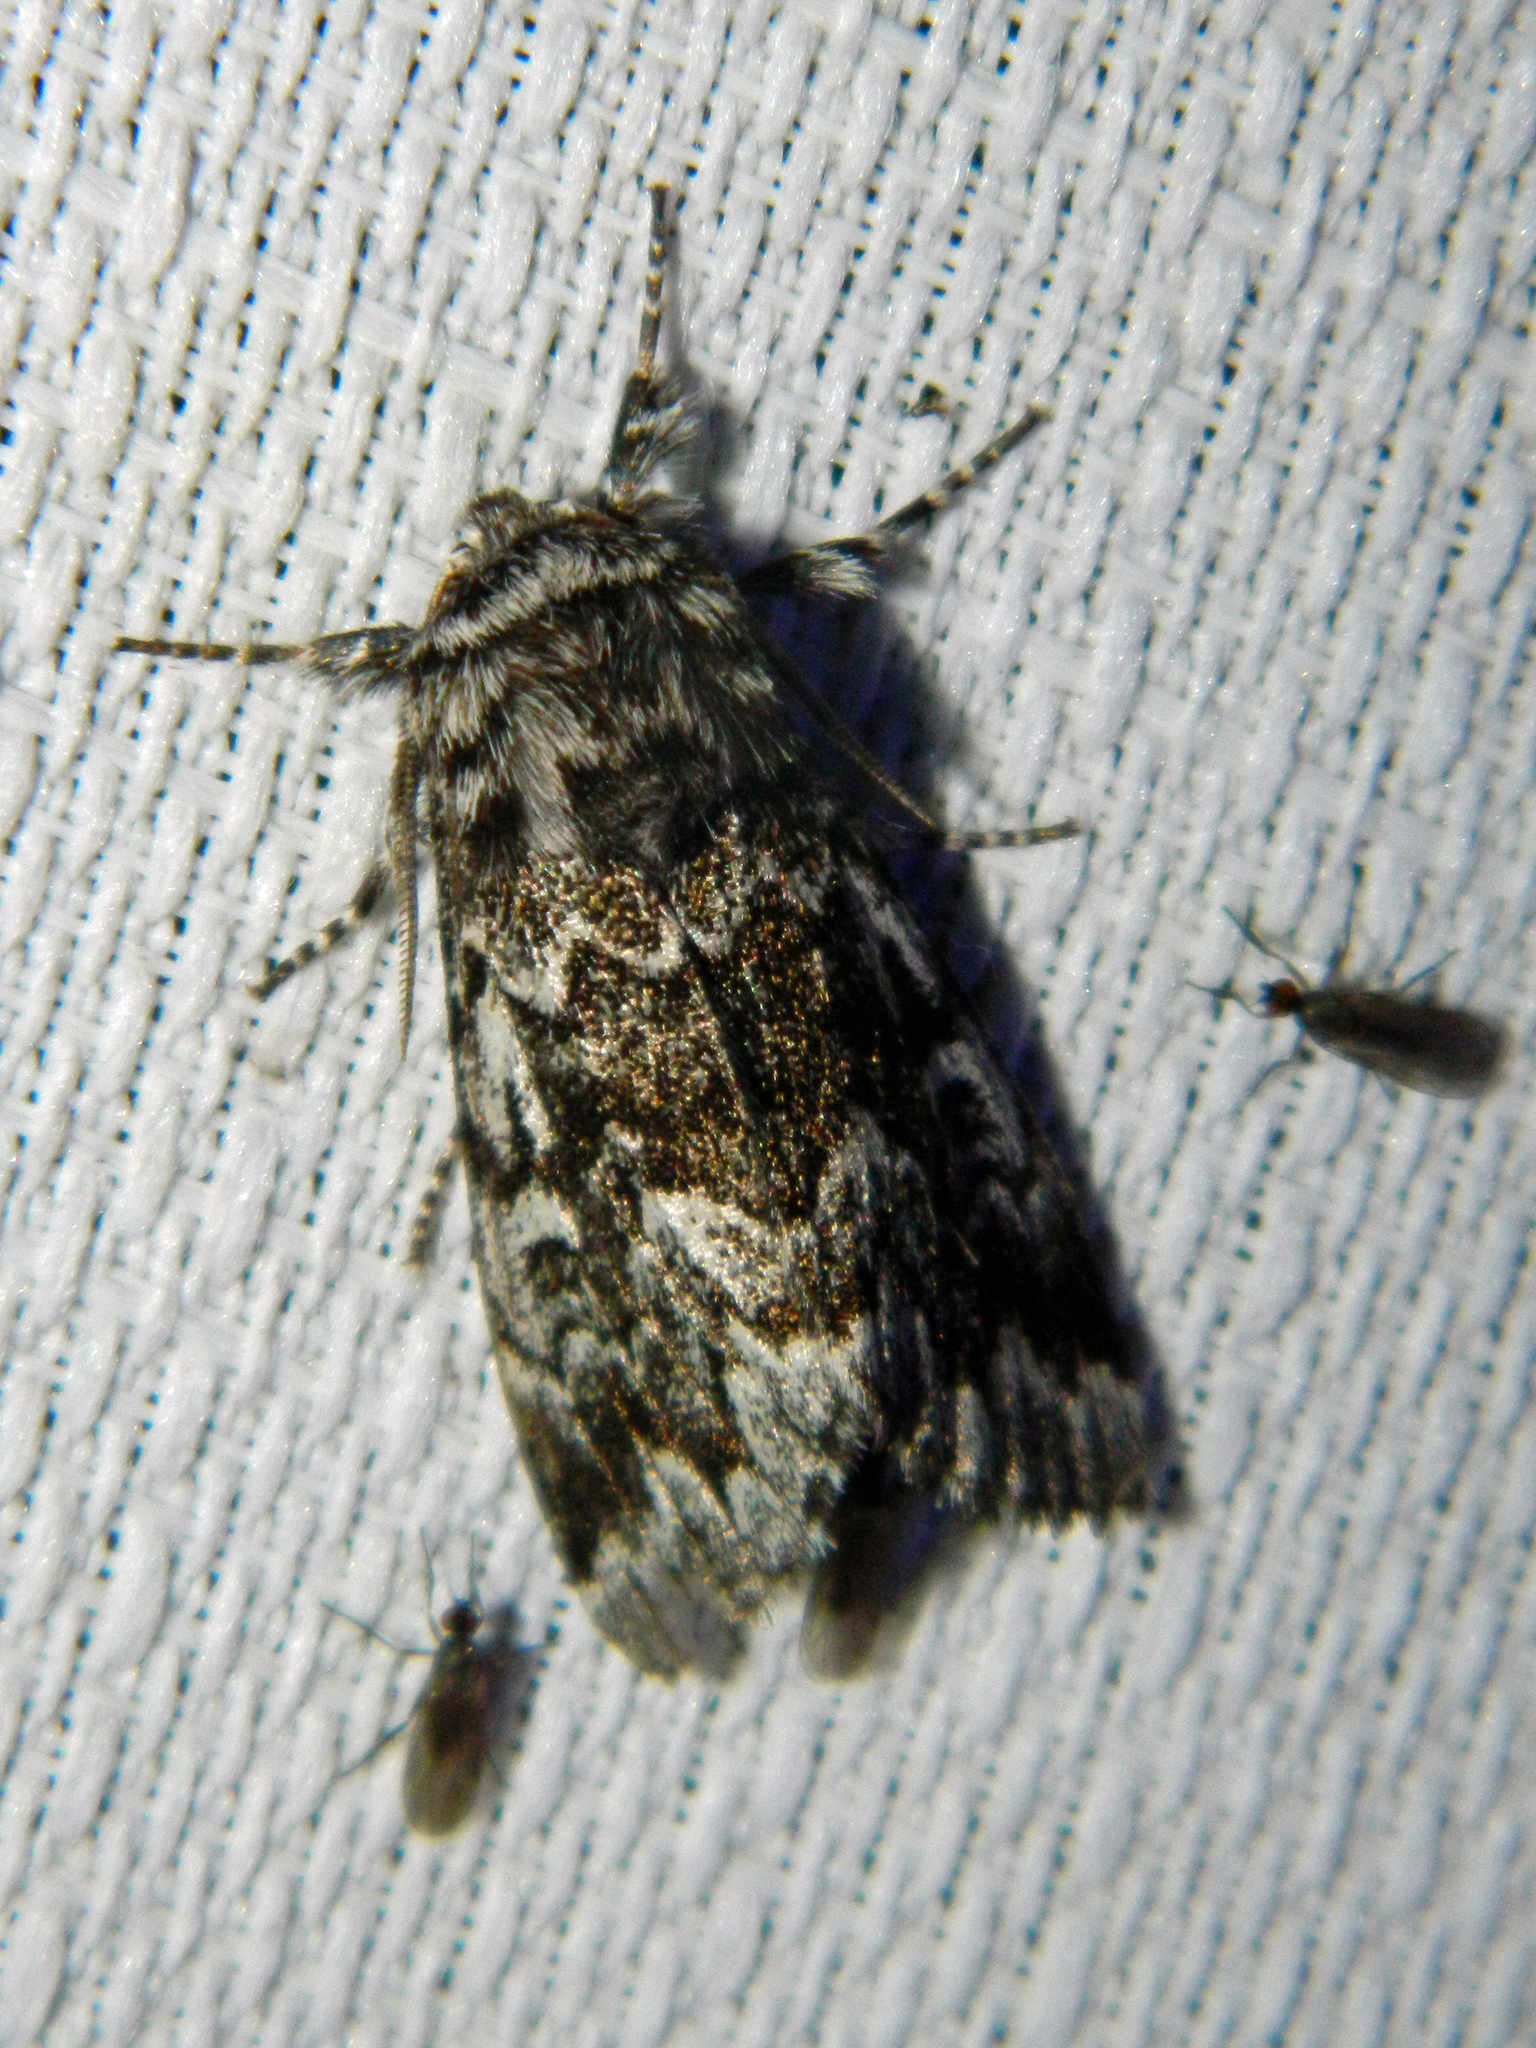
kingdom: Animalia
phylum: Arthropoda
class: Insecta
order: Lepidoptera
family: Noctuidae
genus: Panthea
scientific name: Panthea acronyctoides
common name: Black zigzag moth
